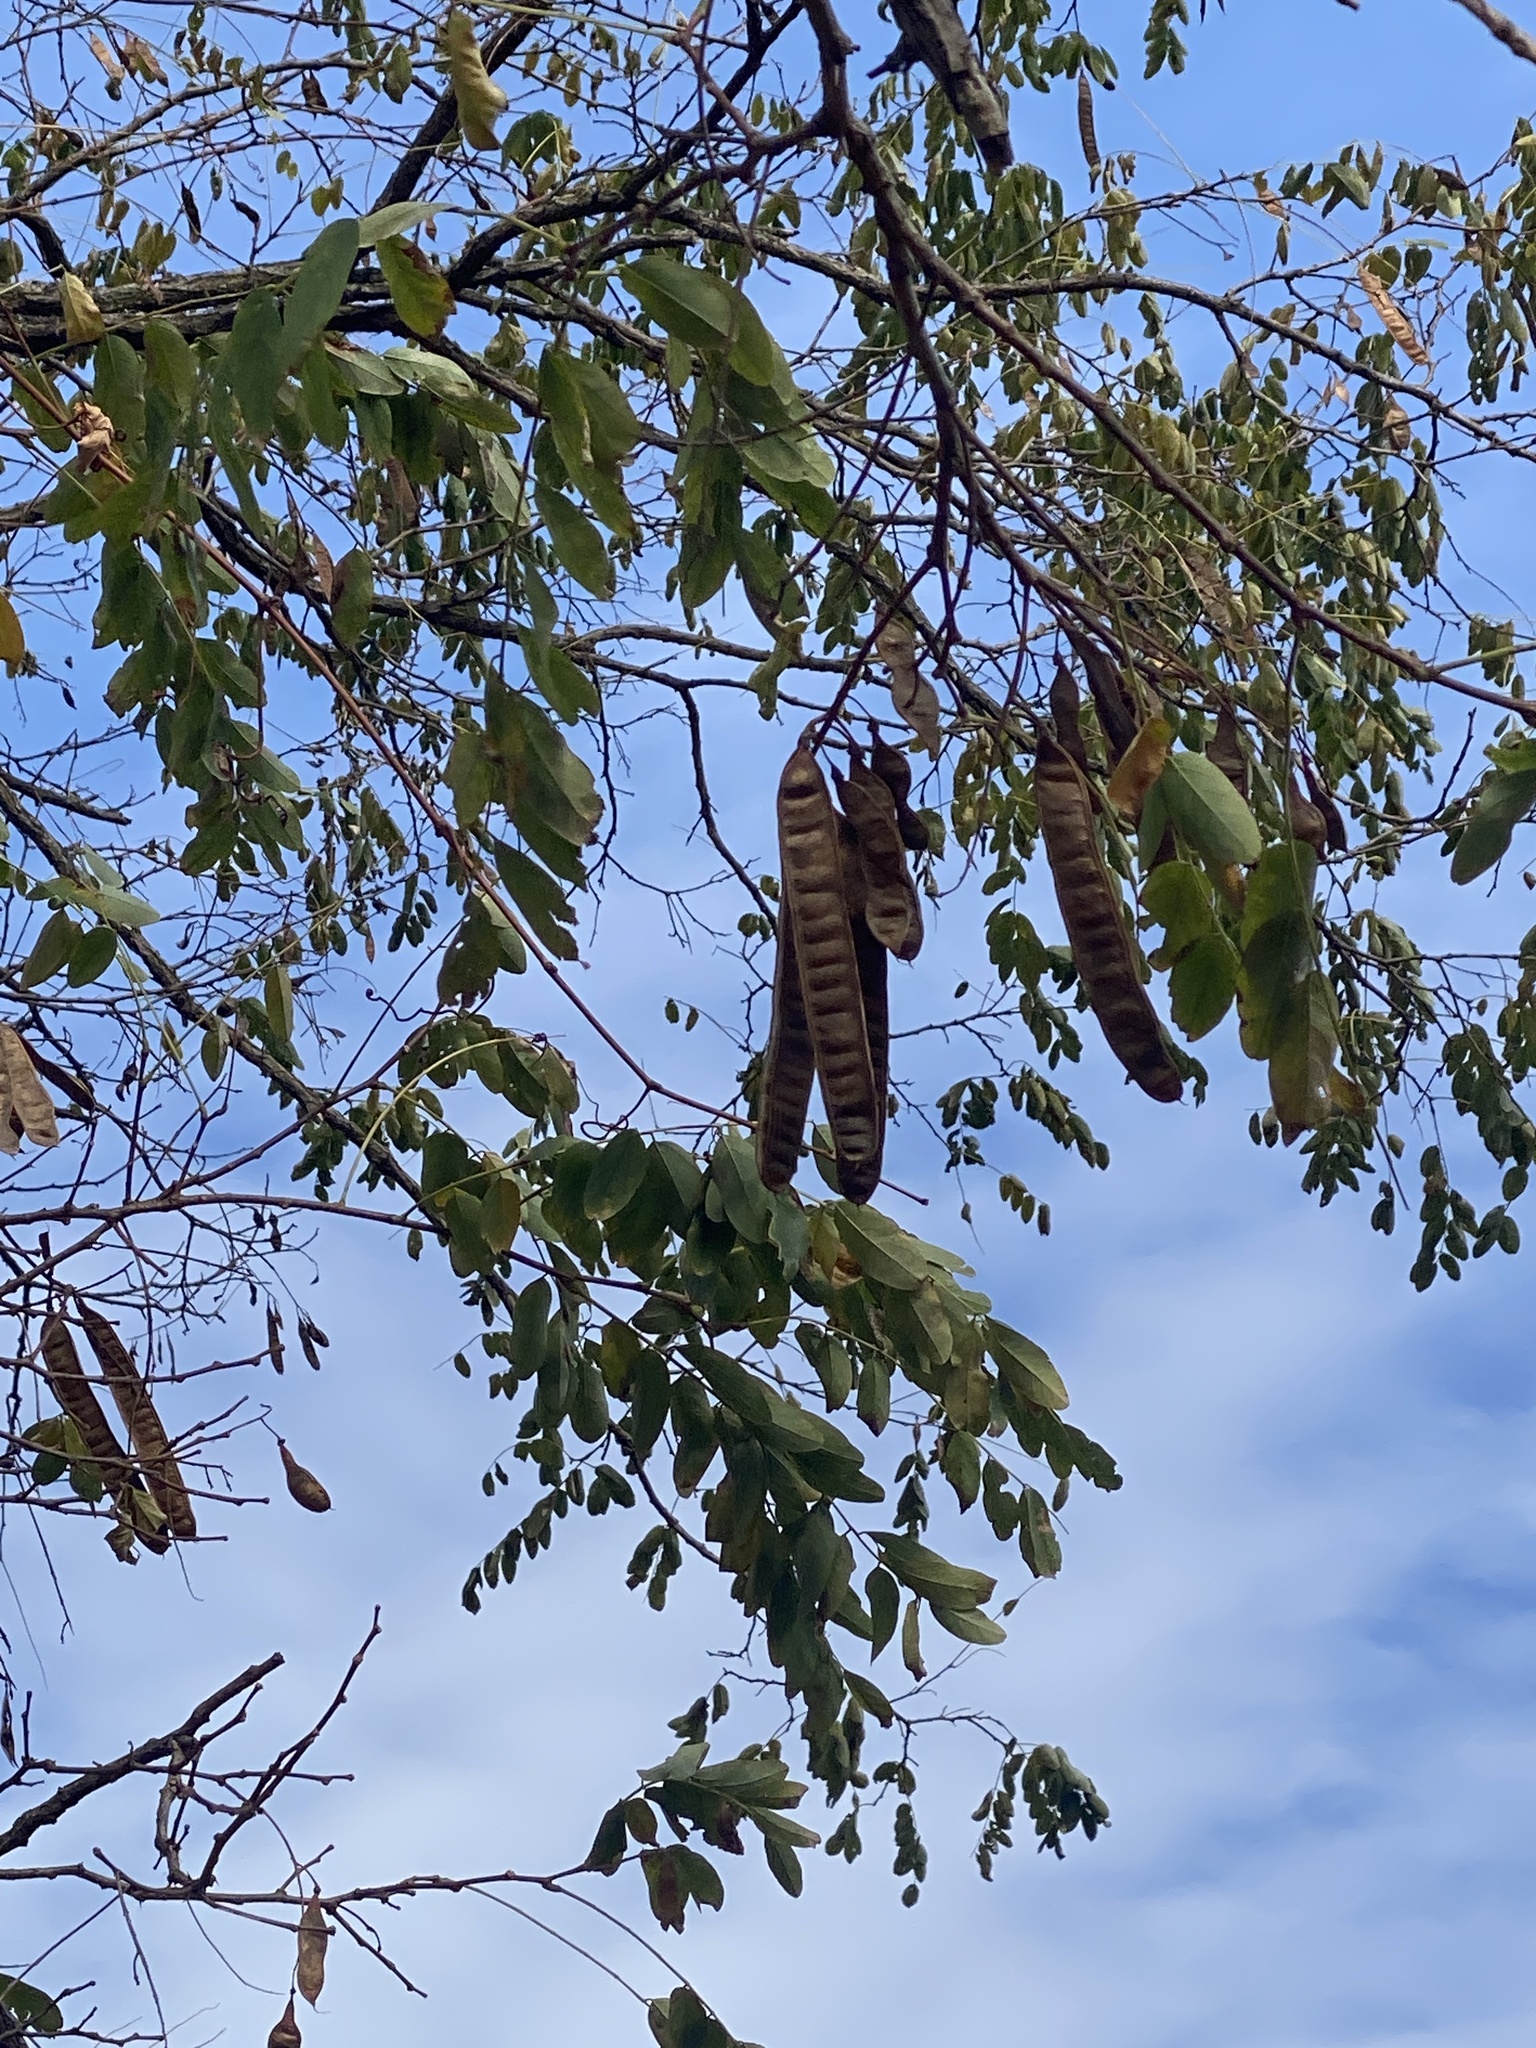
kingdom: Plantae
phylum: Tracheophyta
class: Magnoliopsida
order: Fabales
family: Fabaceae
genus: Robinia
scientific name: Robinia pseudoacacia
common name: Black locust
